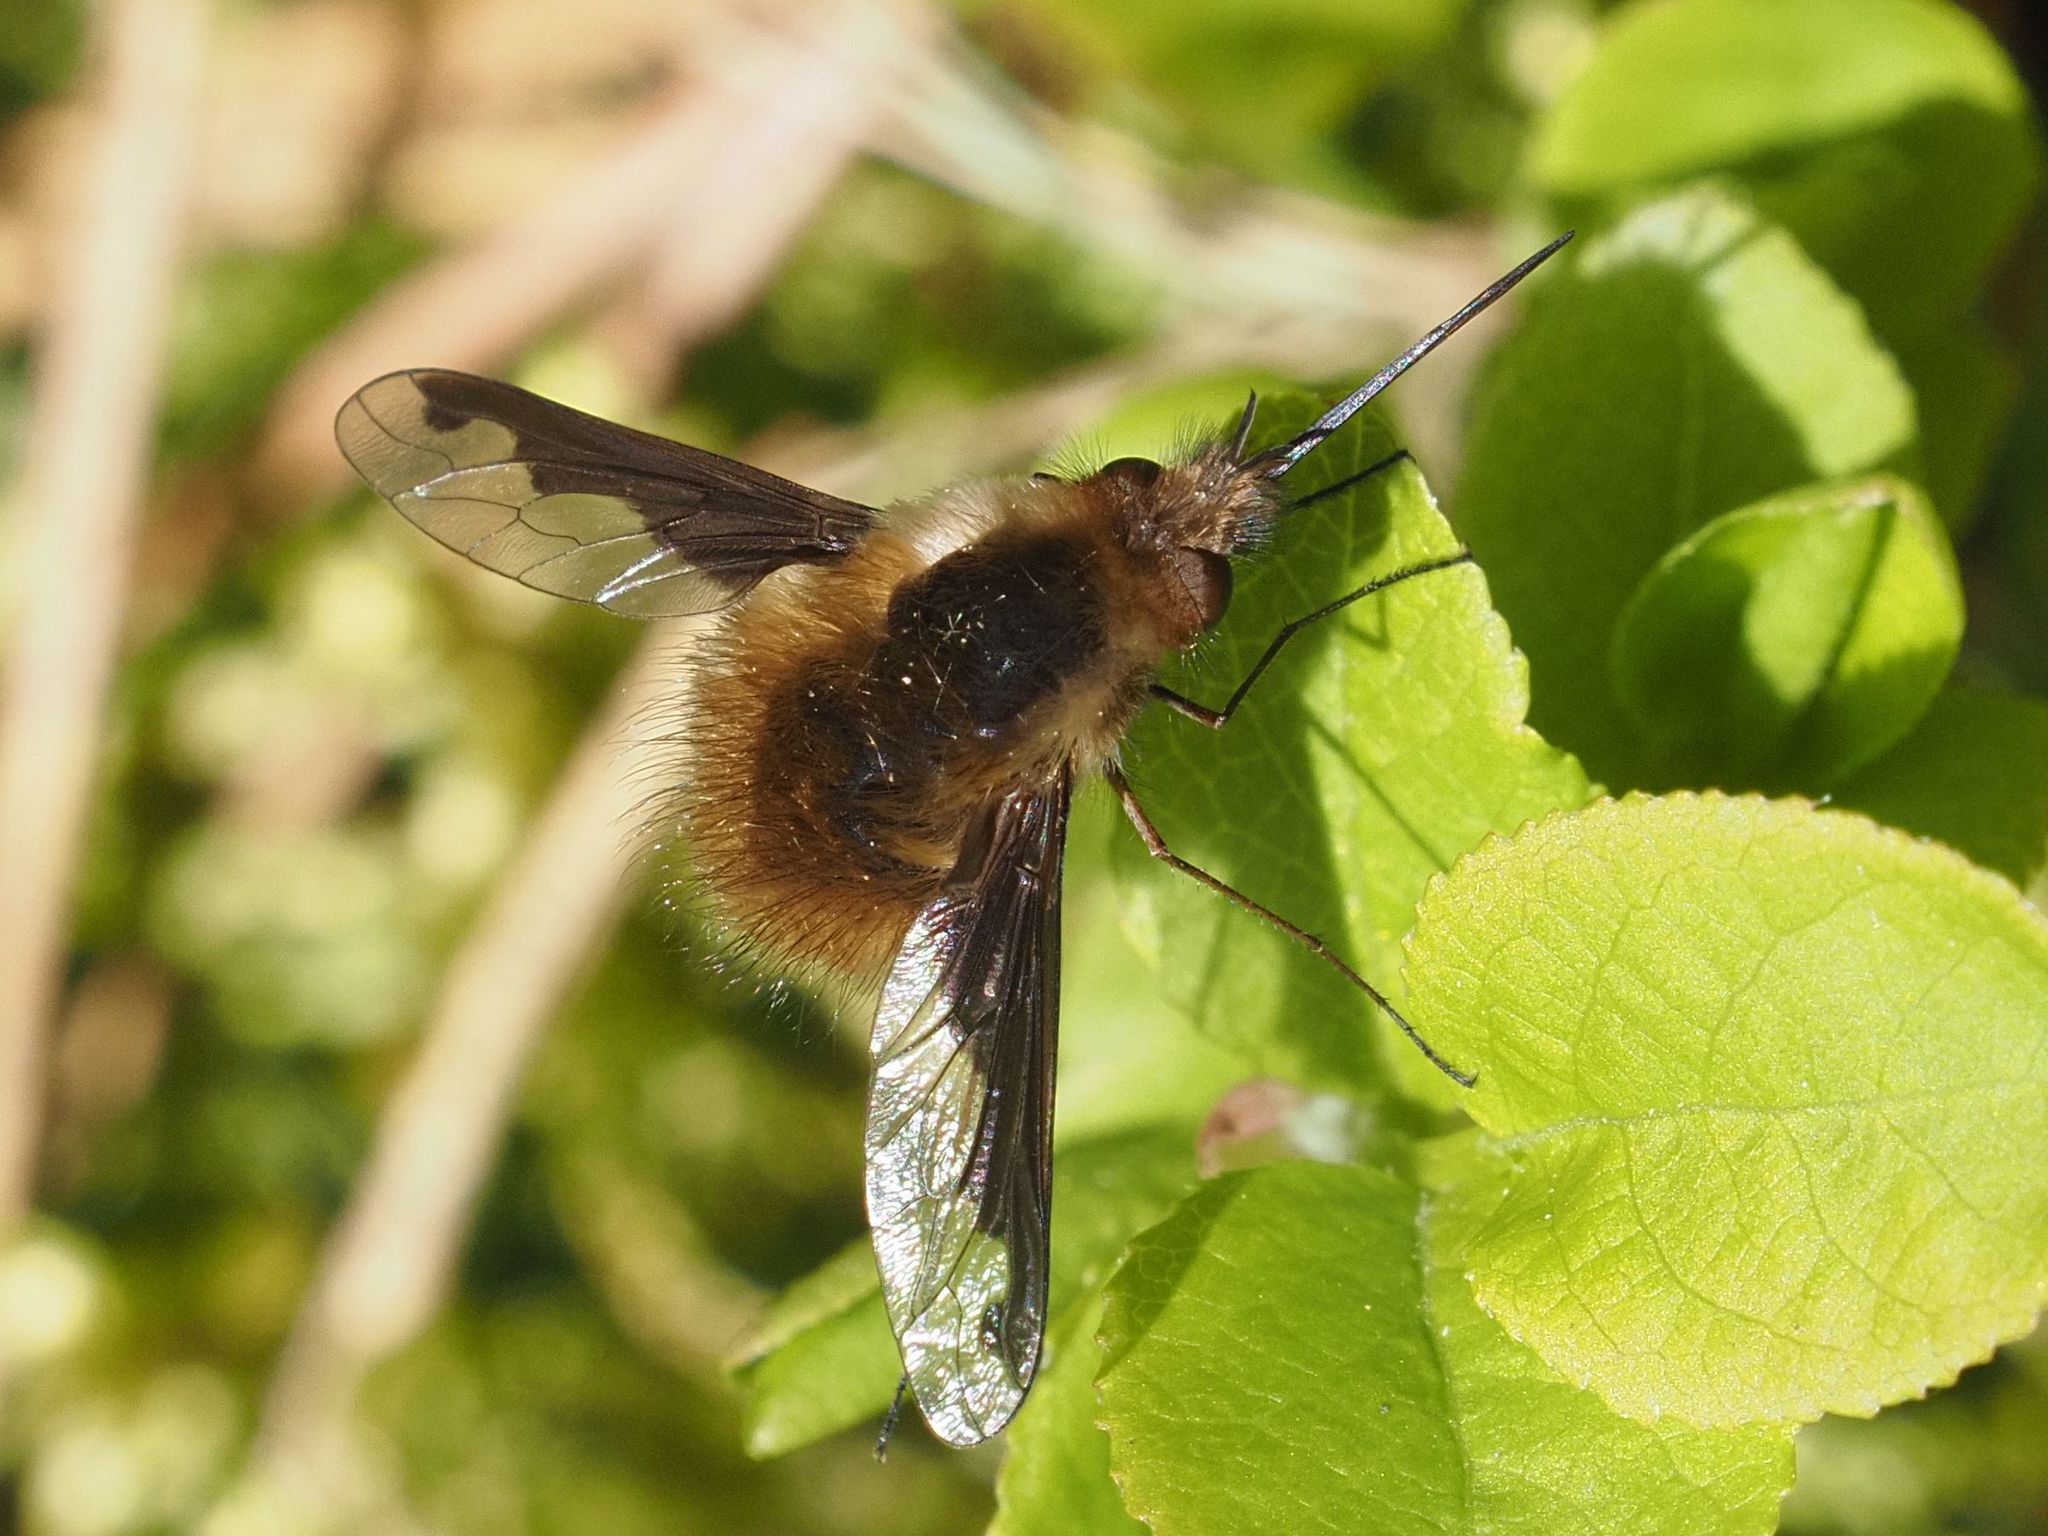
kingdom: Animalia
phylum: Arthropoda
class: Insecta
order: Diptera
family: Bombyliidae
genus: Bombylius
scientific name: Bombylius major
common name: Bee fly
